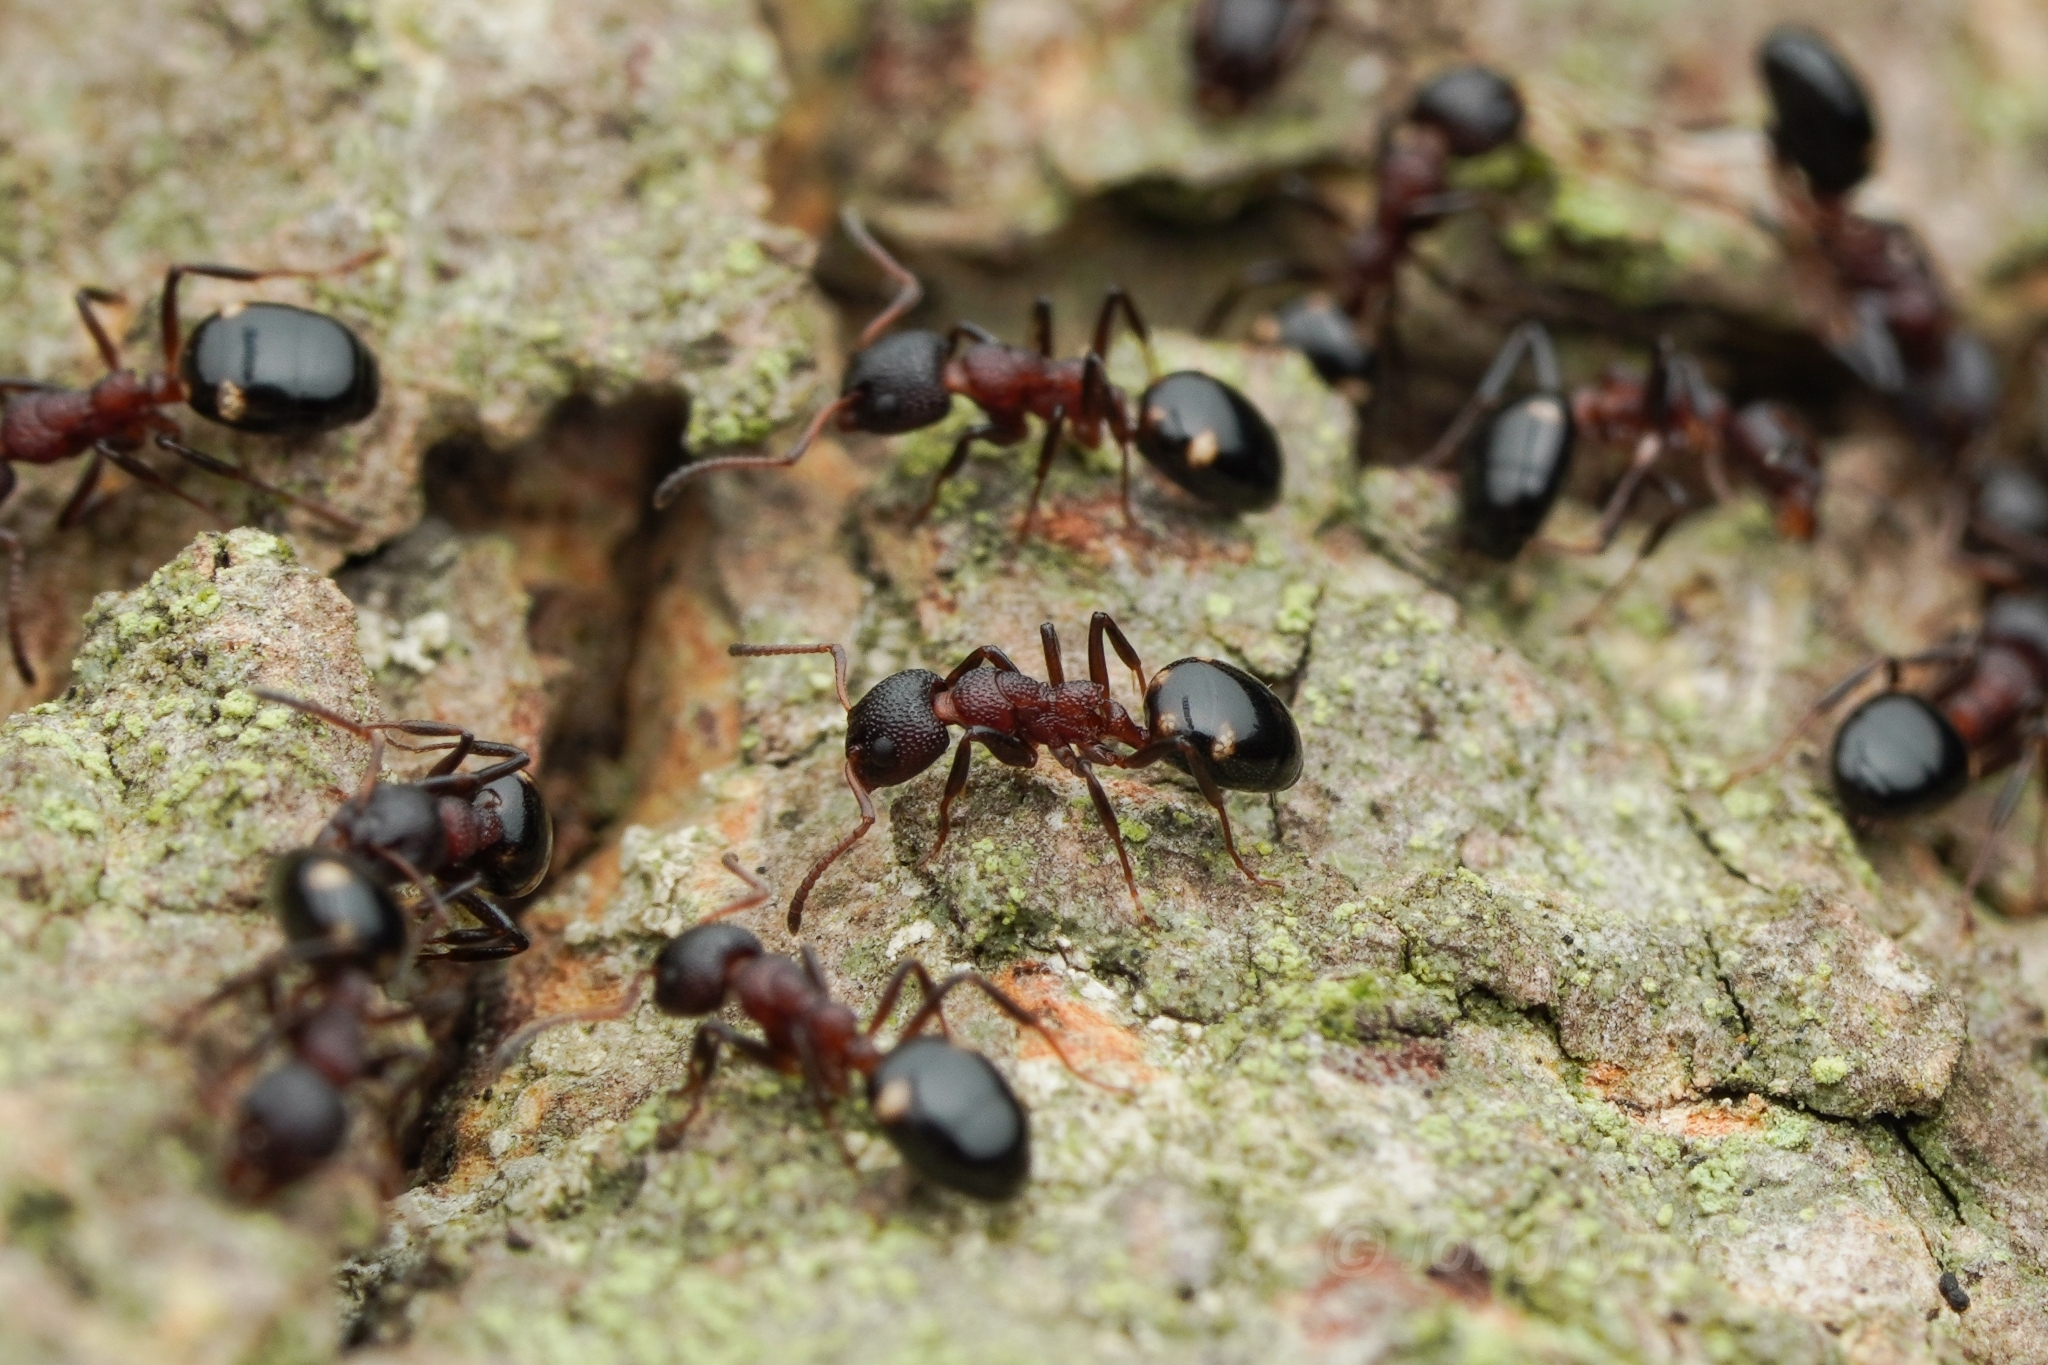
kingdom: Animalia
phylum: Arthropoda
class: Insecta
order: Hymenoptera
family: Formicidae
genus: Dolichoderus
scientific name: Dolichoderus sibiricus
